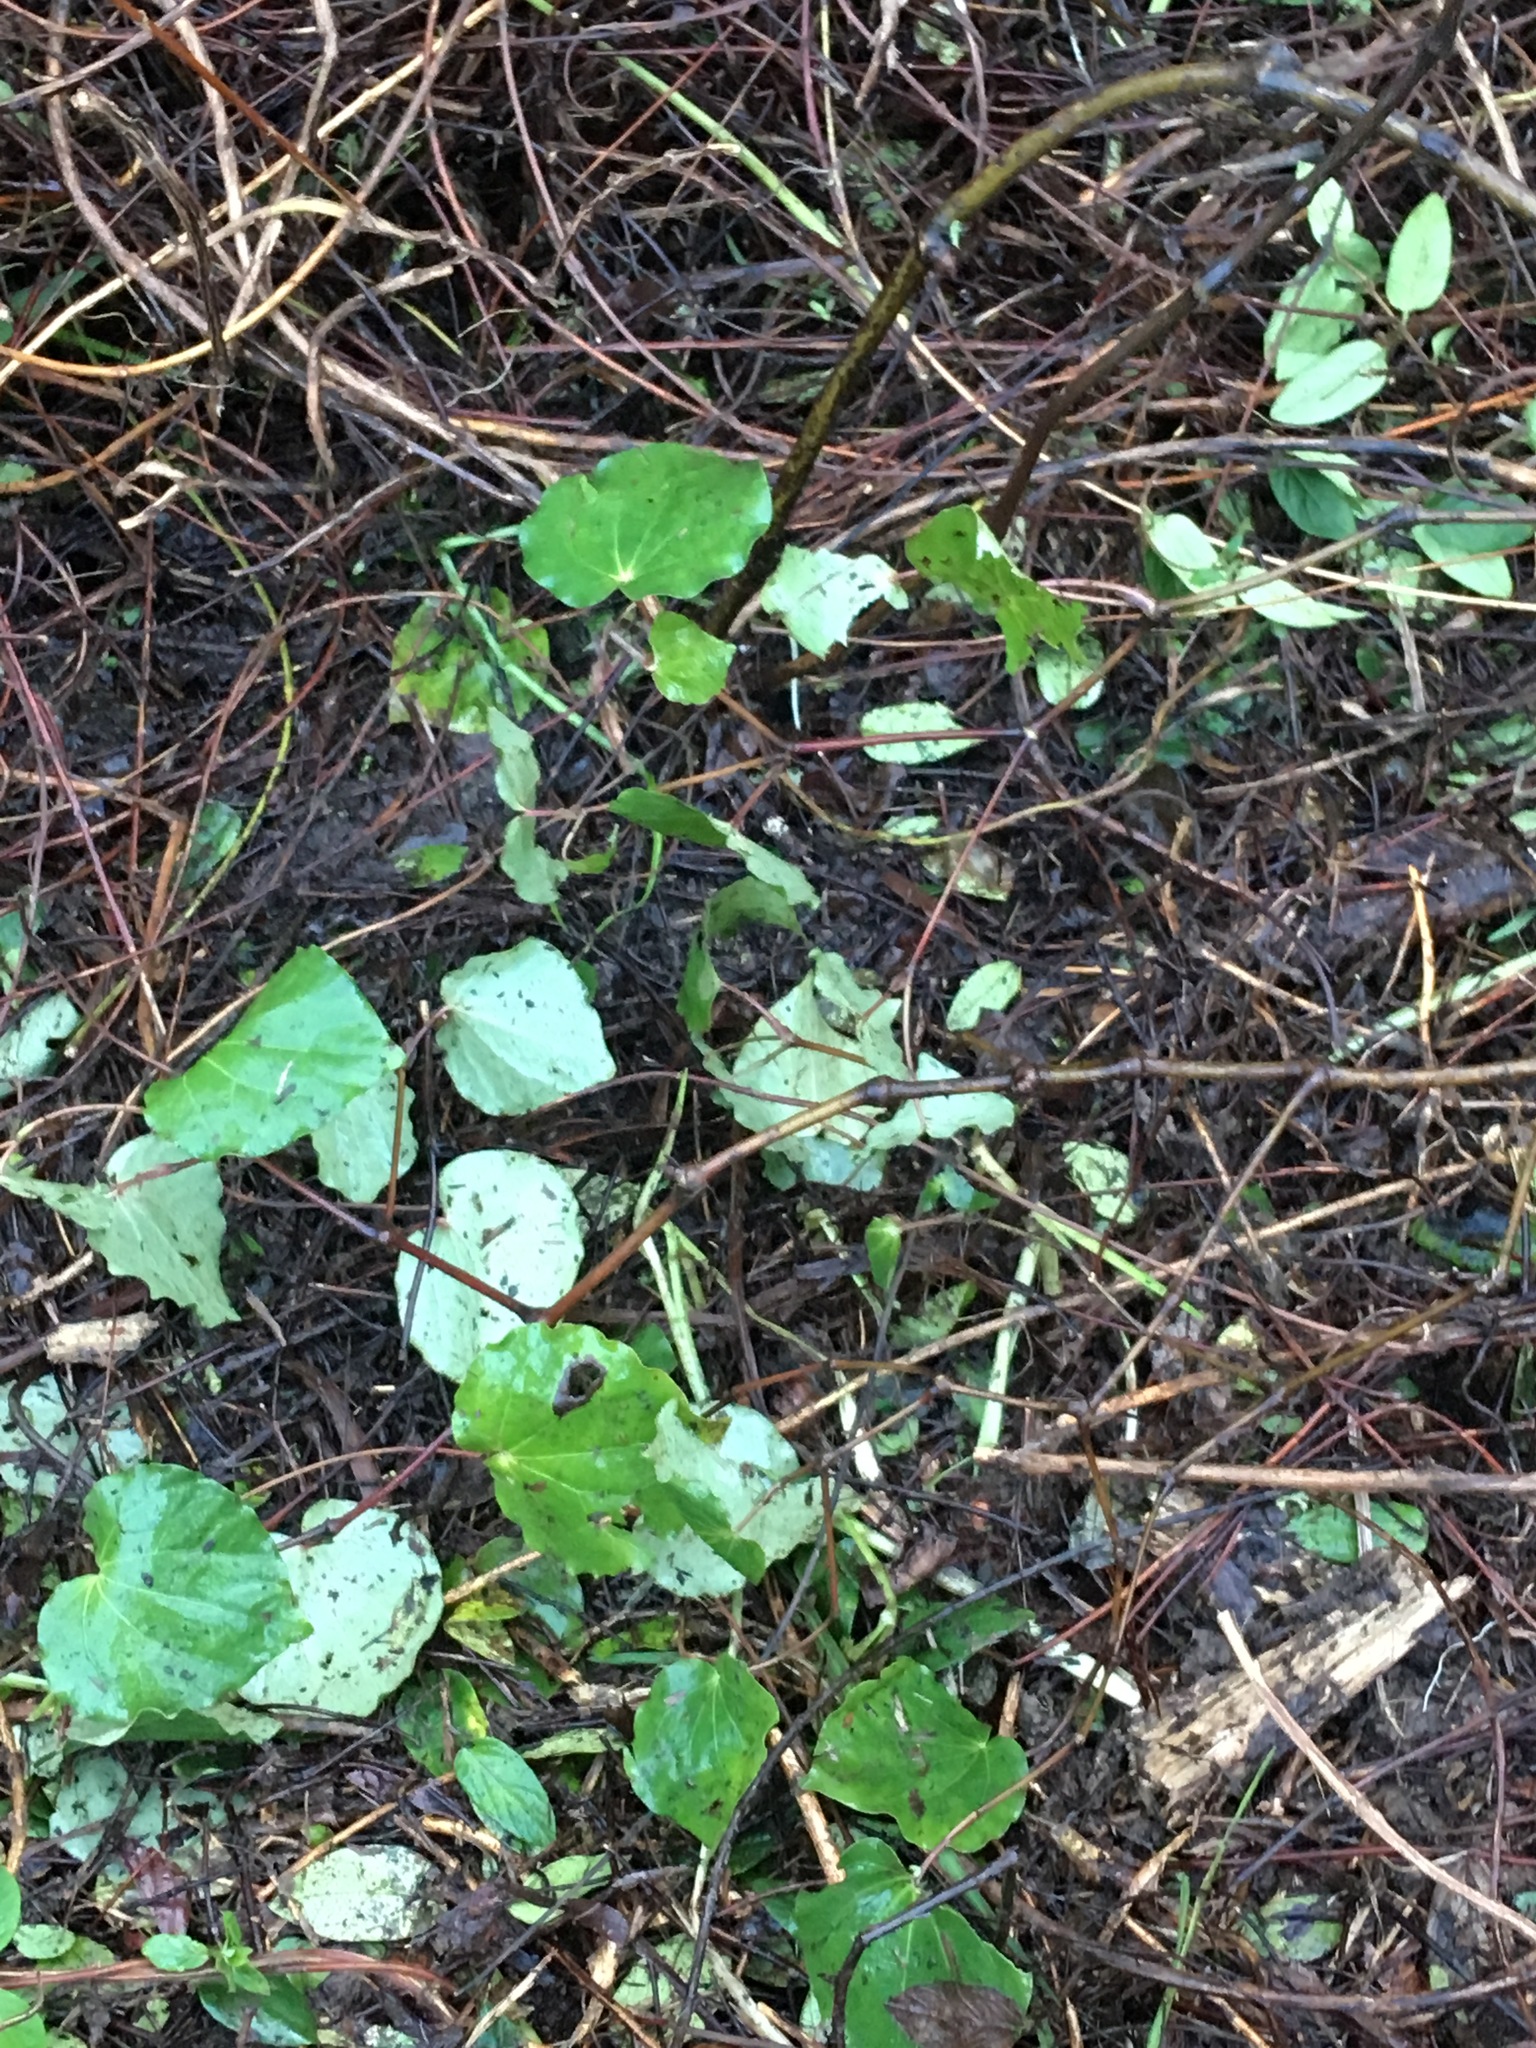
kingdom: Plantae
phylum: Tracheophyta
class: Magnoliopsida
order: Piperales
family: Piperaceae
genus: Macropiper
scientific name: Macropiper excelsum
